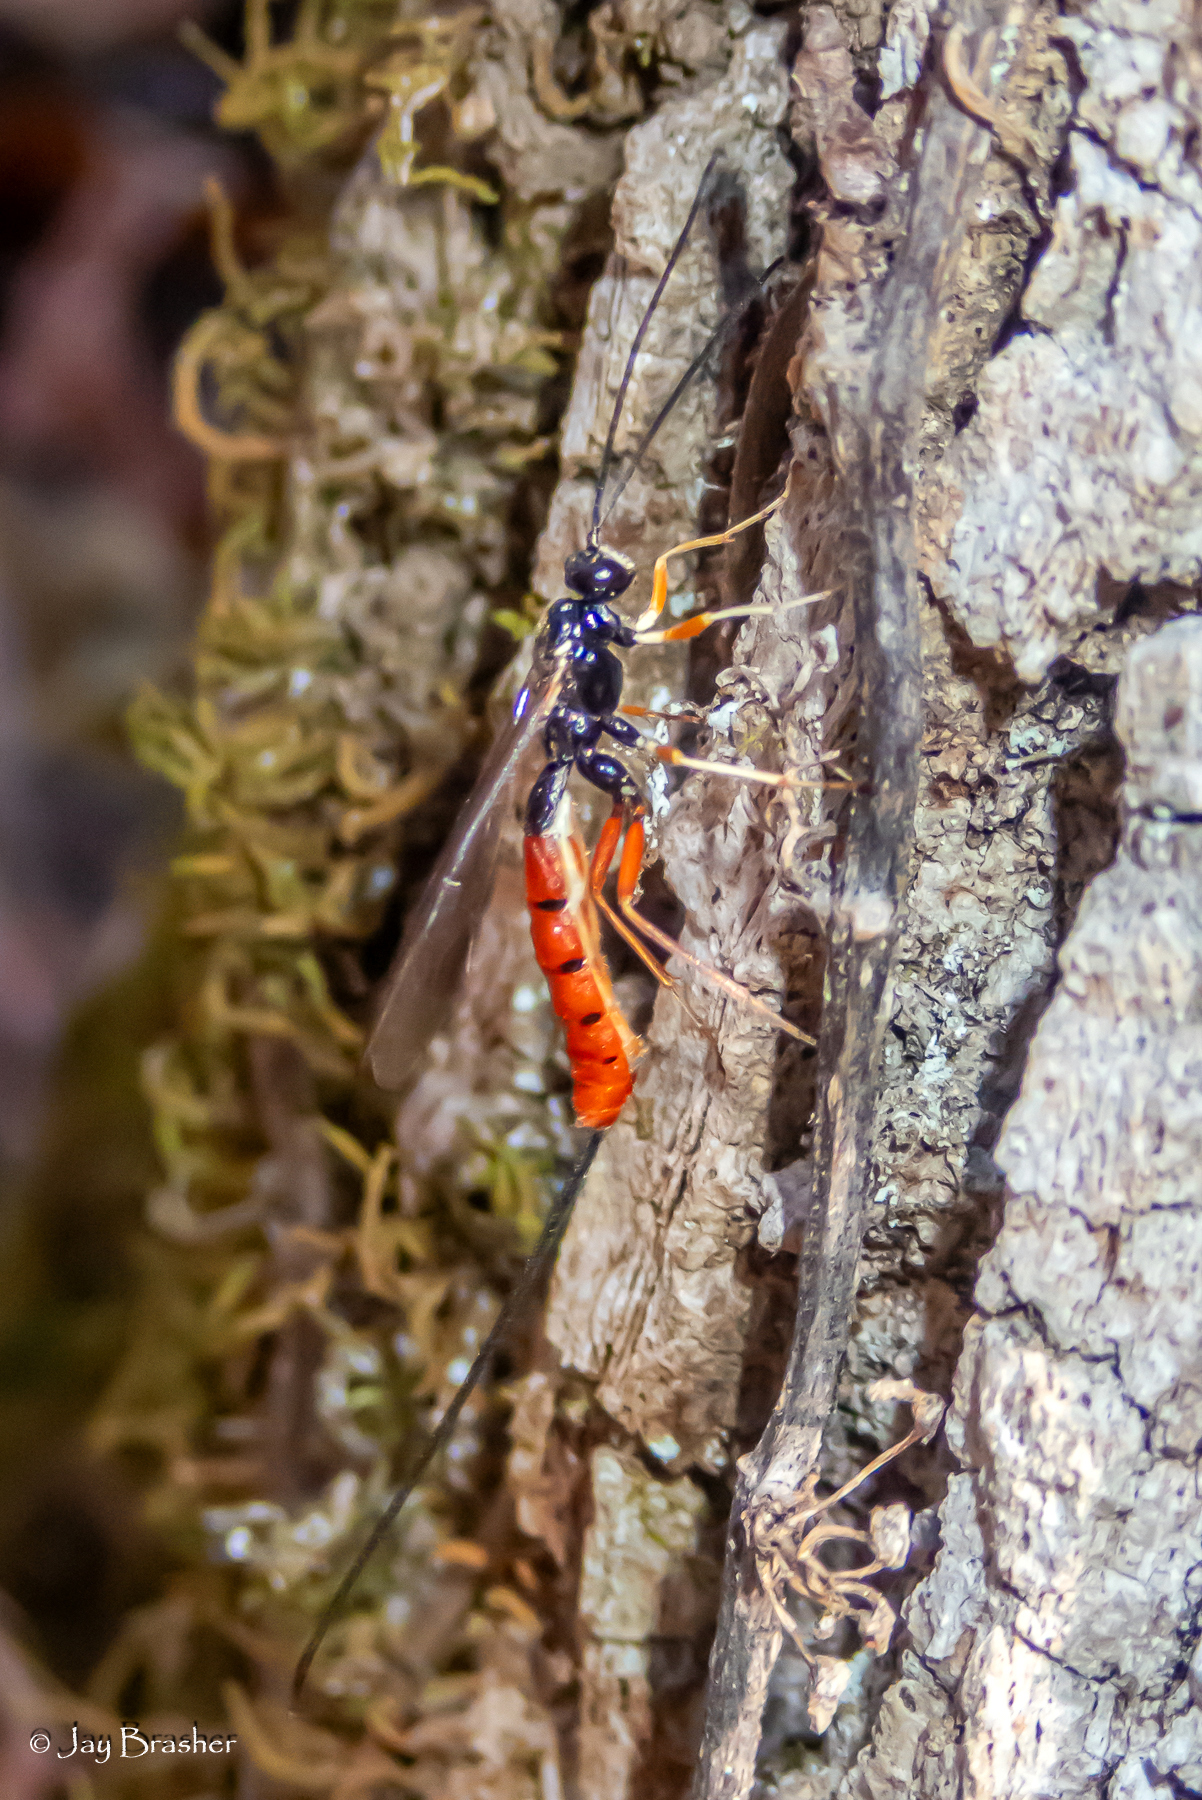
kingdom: Animalia
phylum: Arthropoda
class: Insecta
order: Hymenoptera
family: Ichneumonidae
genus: Dolichomitus
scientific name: Dolichomitus irritator
